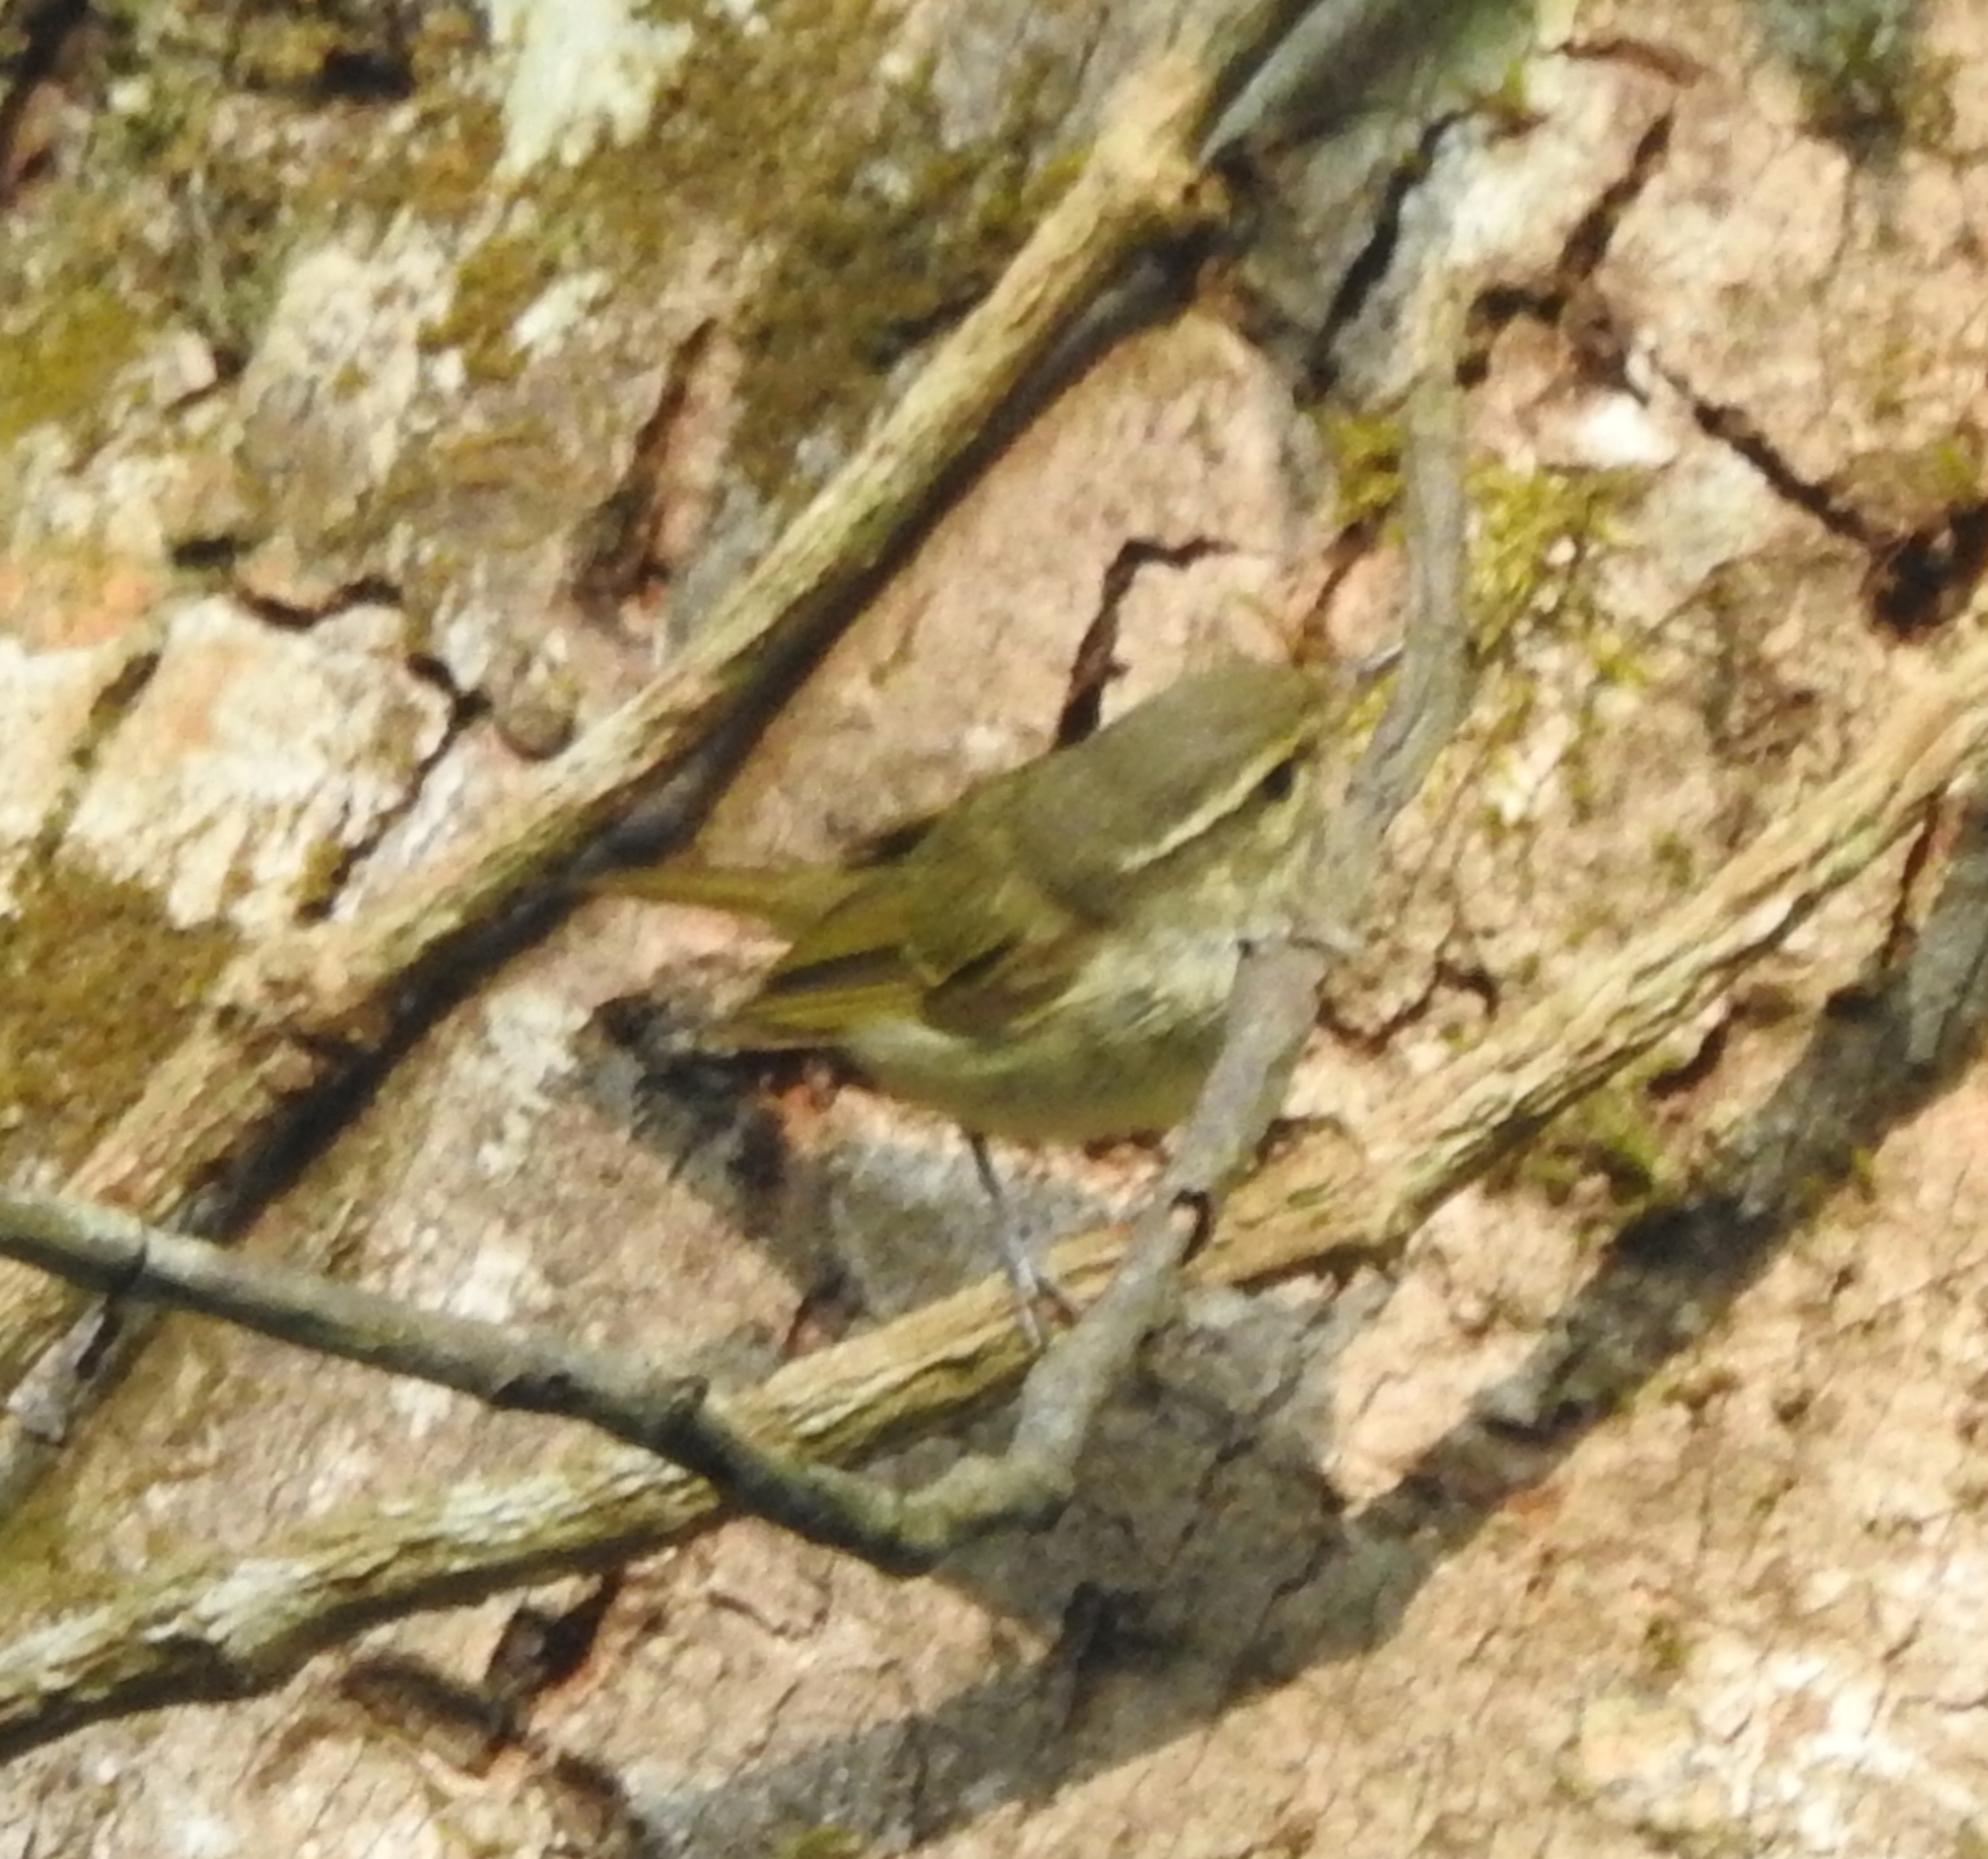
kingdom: Animalia
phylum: Chordata
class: Aves
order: Passeriformes
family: Phylloscopidae
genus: Phylloscopus
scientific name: Phylloscopus trochiloides
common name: Greenish warbler
